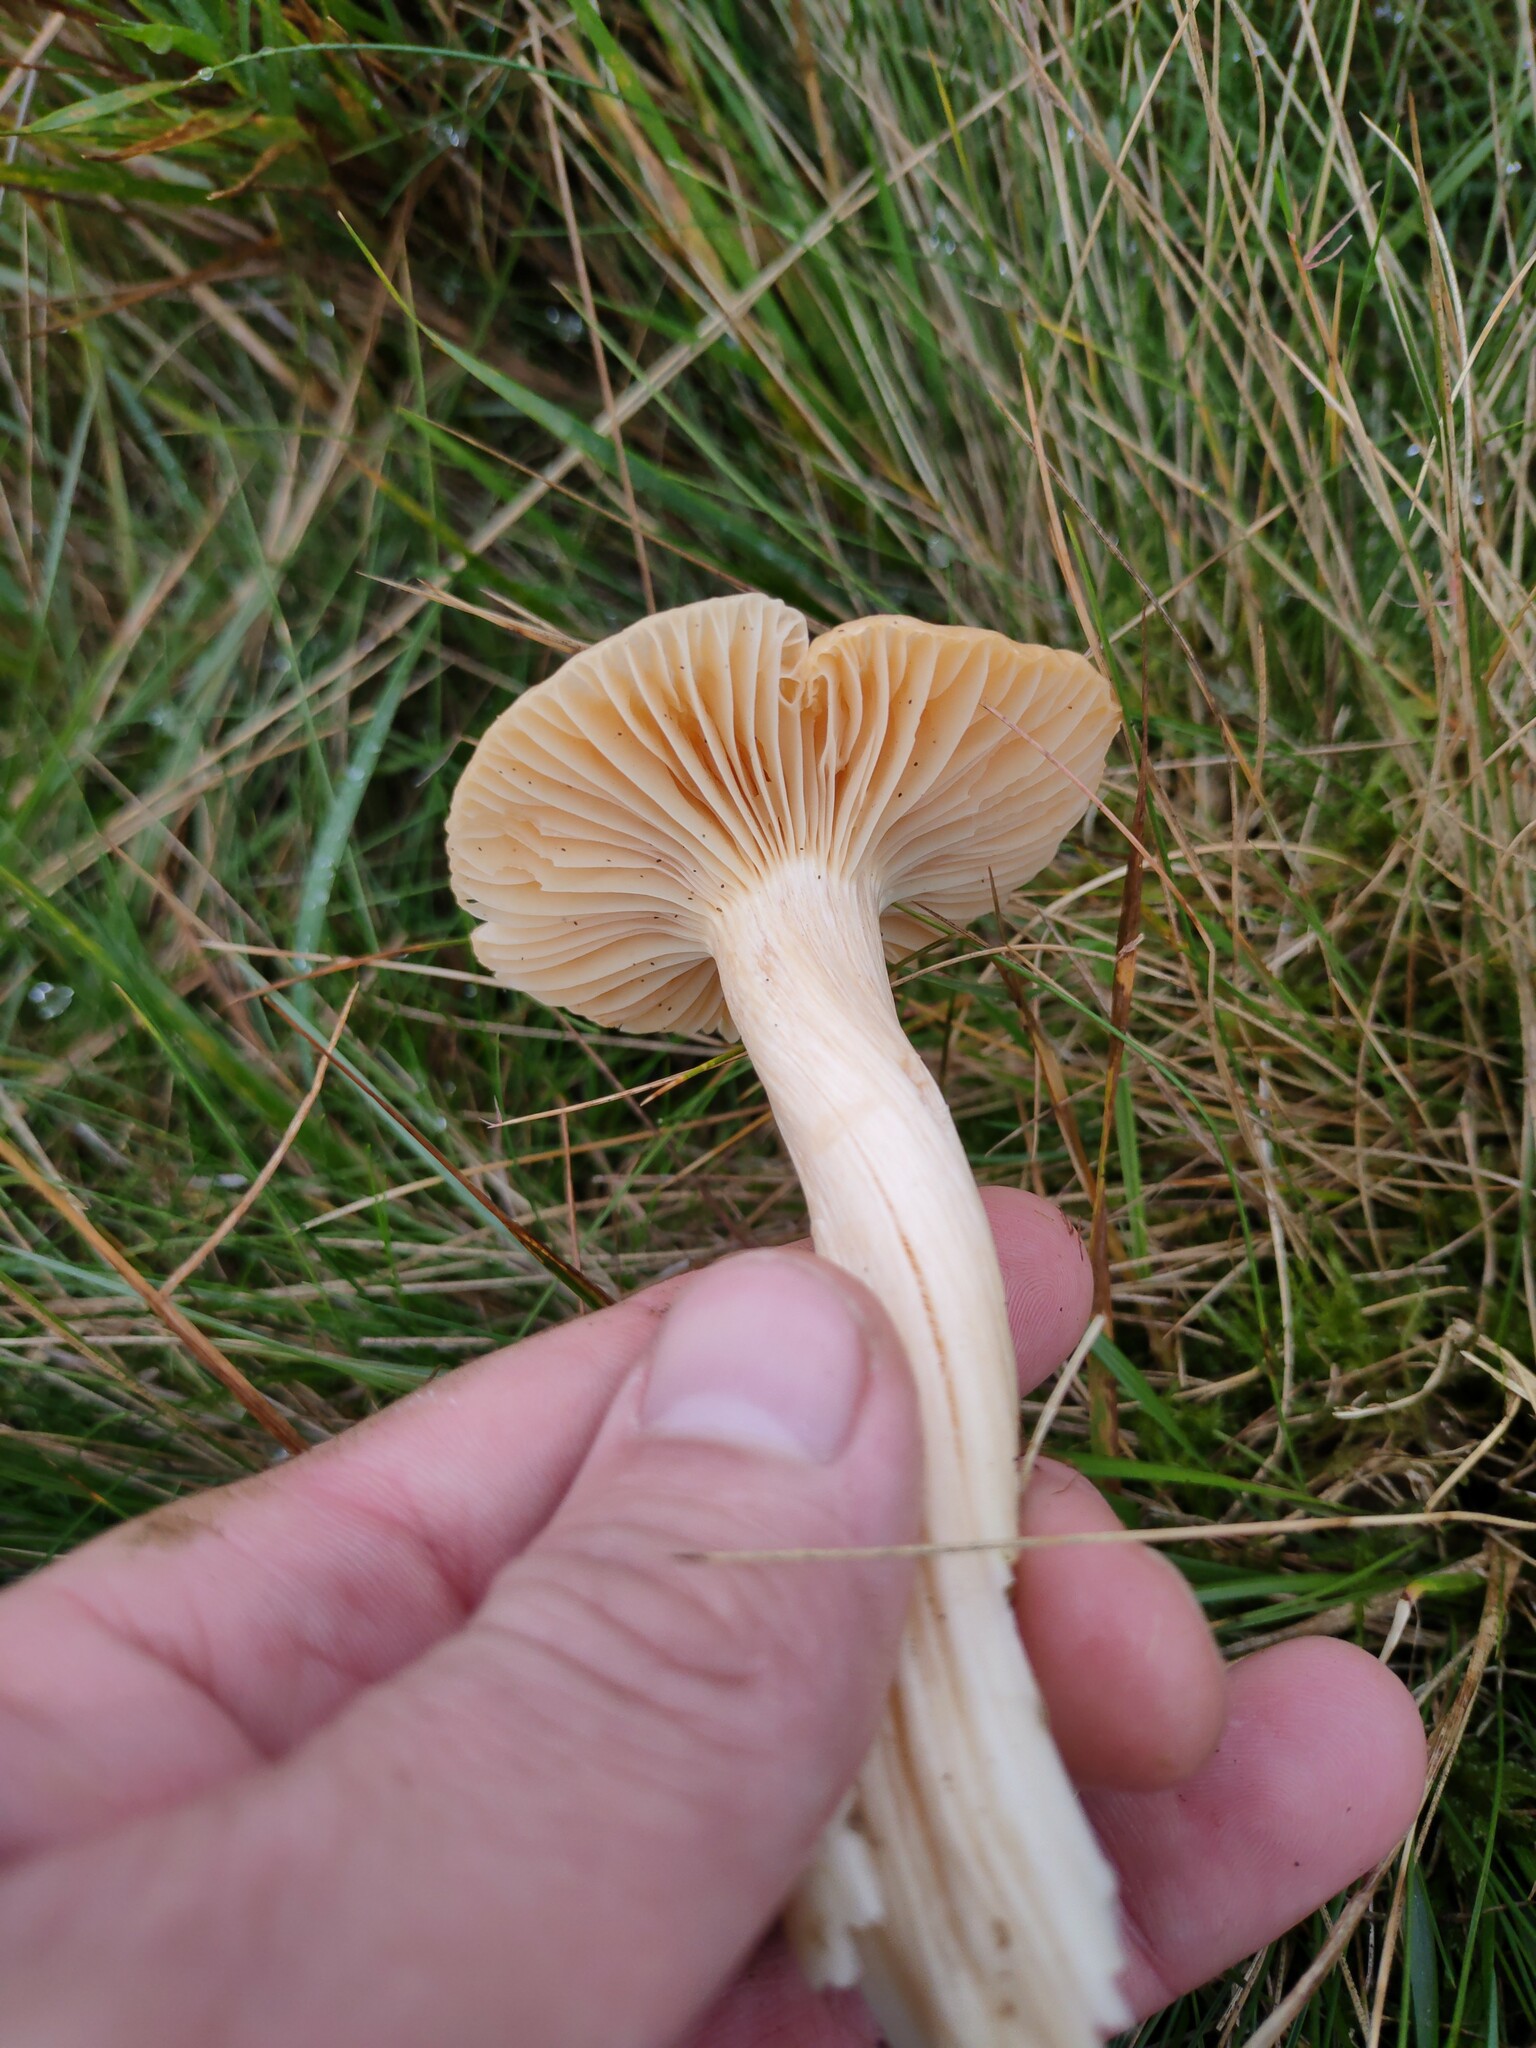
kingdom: Fungi
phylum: Basidiomycota
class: Agaricomycetes
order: Agaricales
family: Hygrophoraceae
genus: Cuphophyllus
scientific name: Cuphophyllus pratensis
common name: Meadow waxcap
